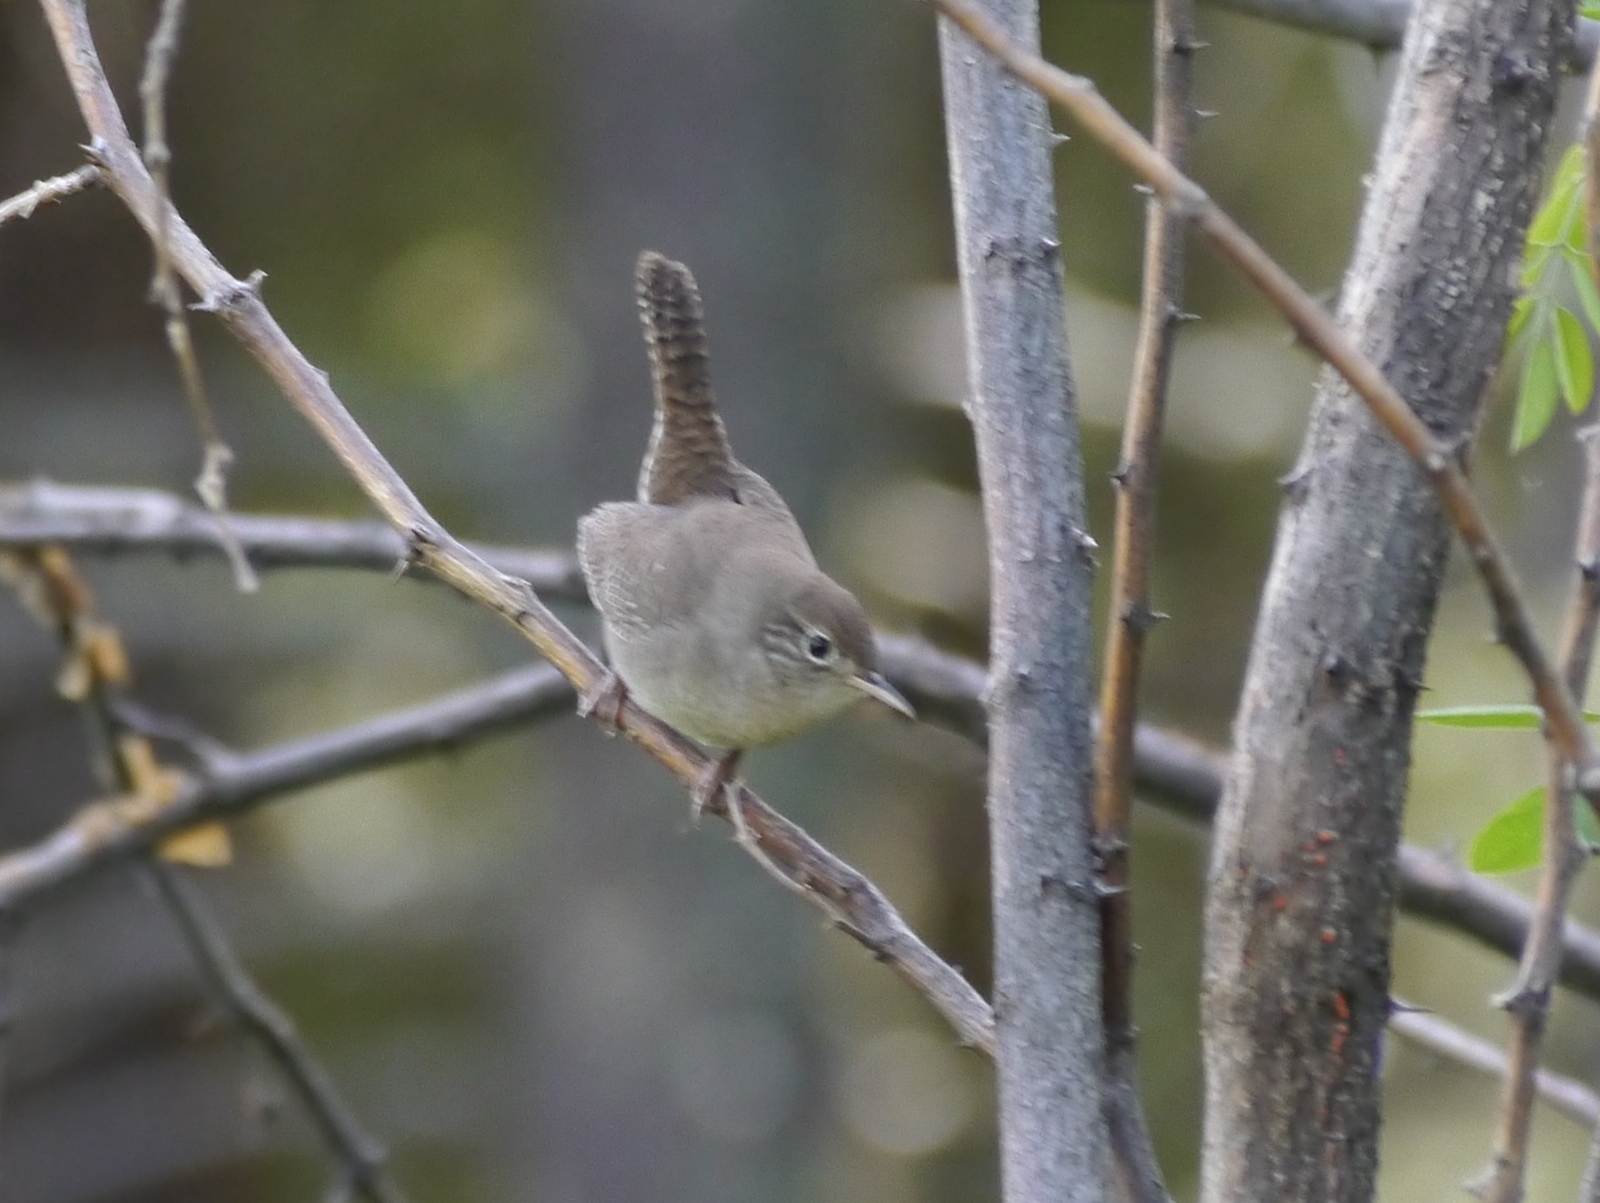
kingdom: Animalia
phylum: Chordata
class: Aves
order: Passeriformes
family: Troglodytidae
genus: Troglodytes
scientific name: Troglodytes aedon
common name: House wren
